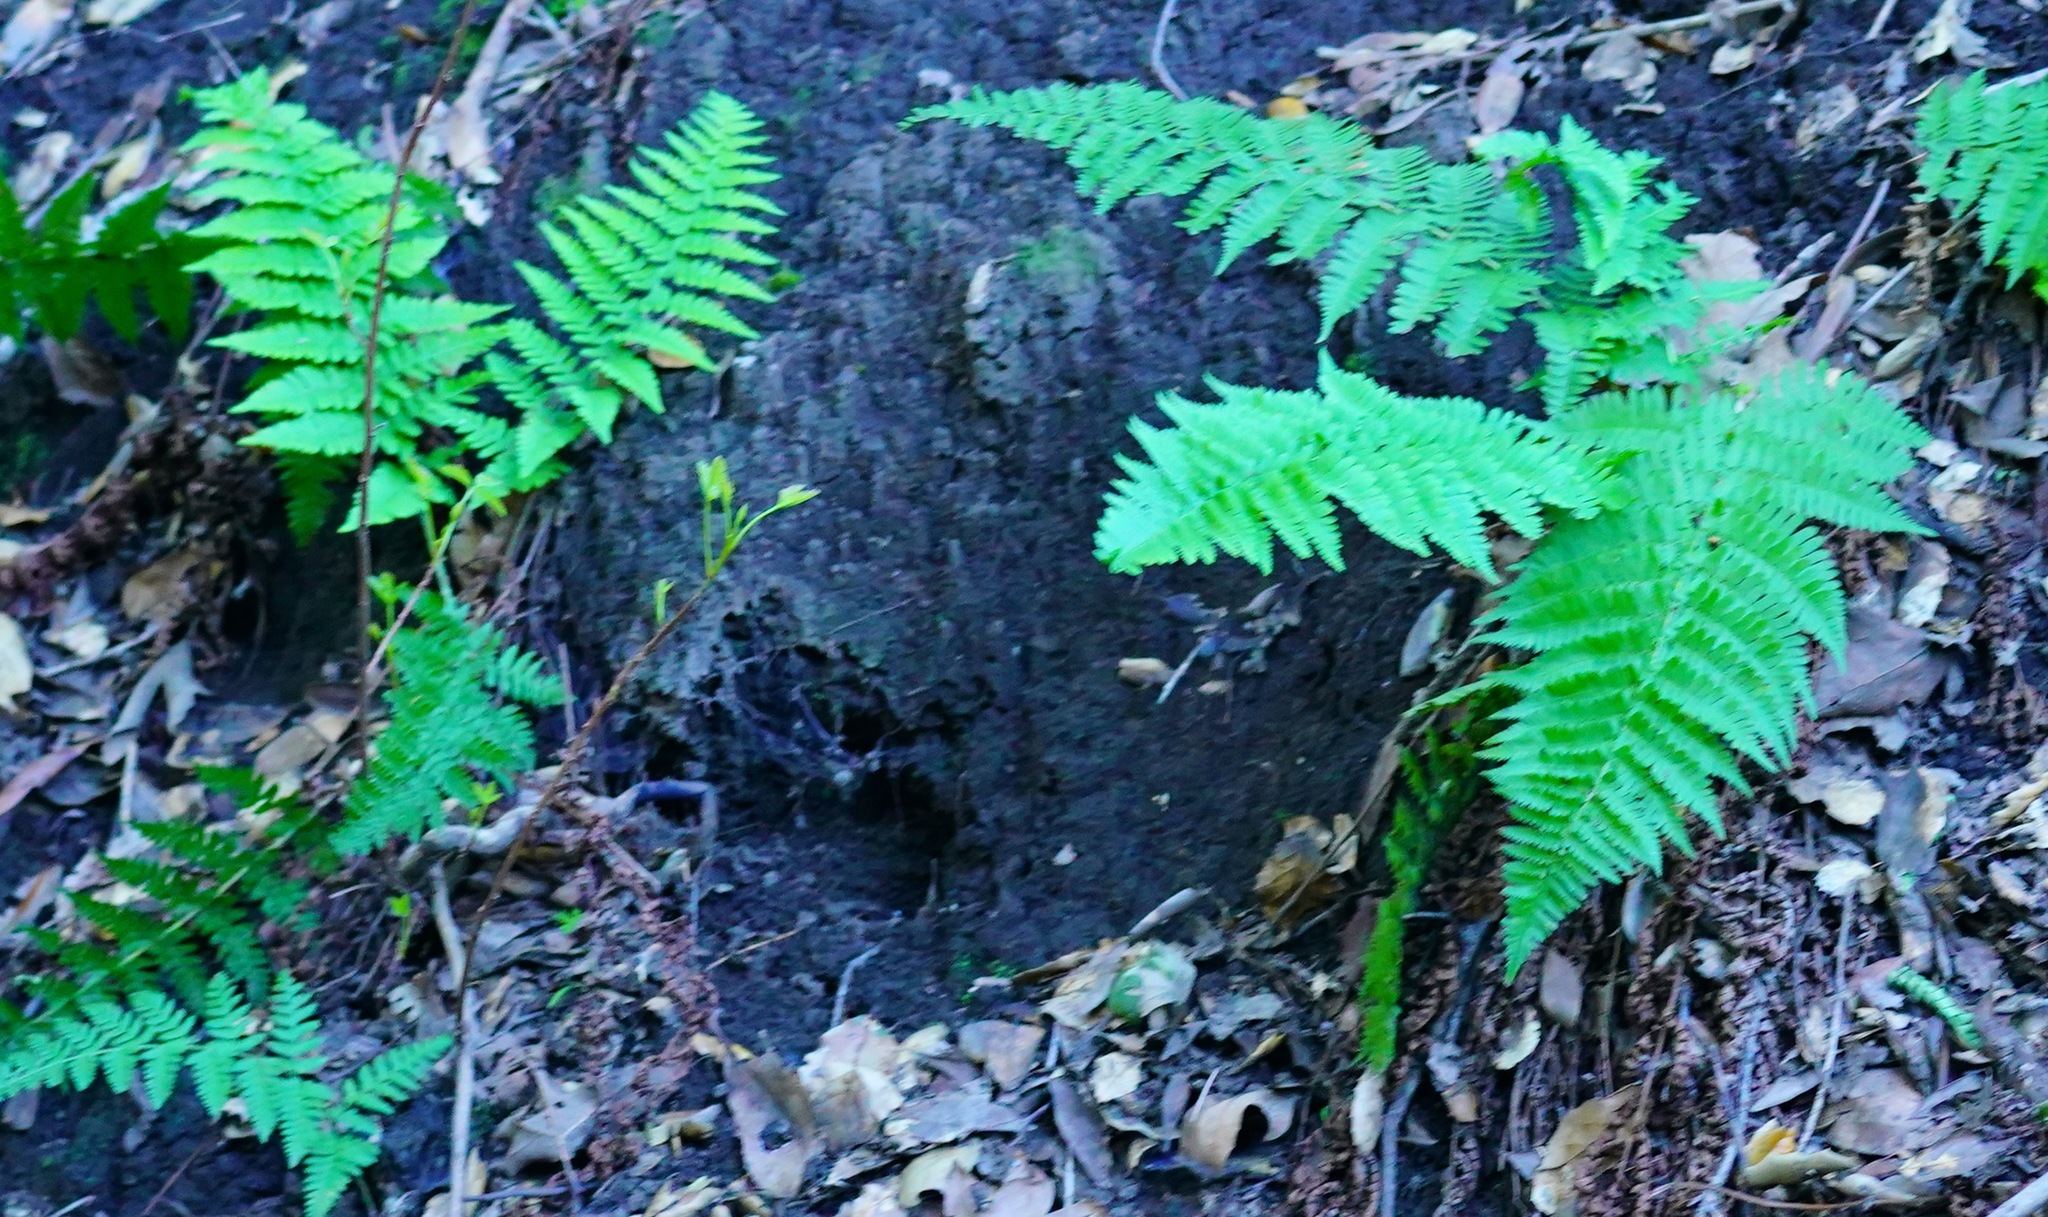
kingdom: Plantae
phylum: Tracheophyta
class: Polypodiopsida
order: Polypodiales
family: Dryopteridaceae
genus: Dryopteris
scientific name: Dryopteris arguta
